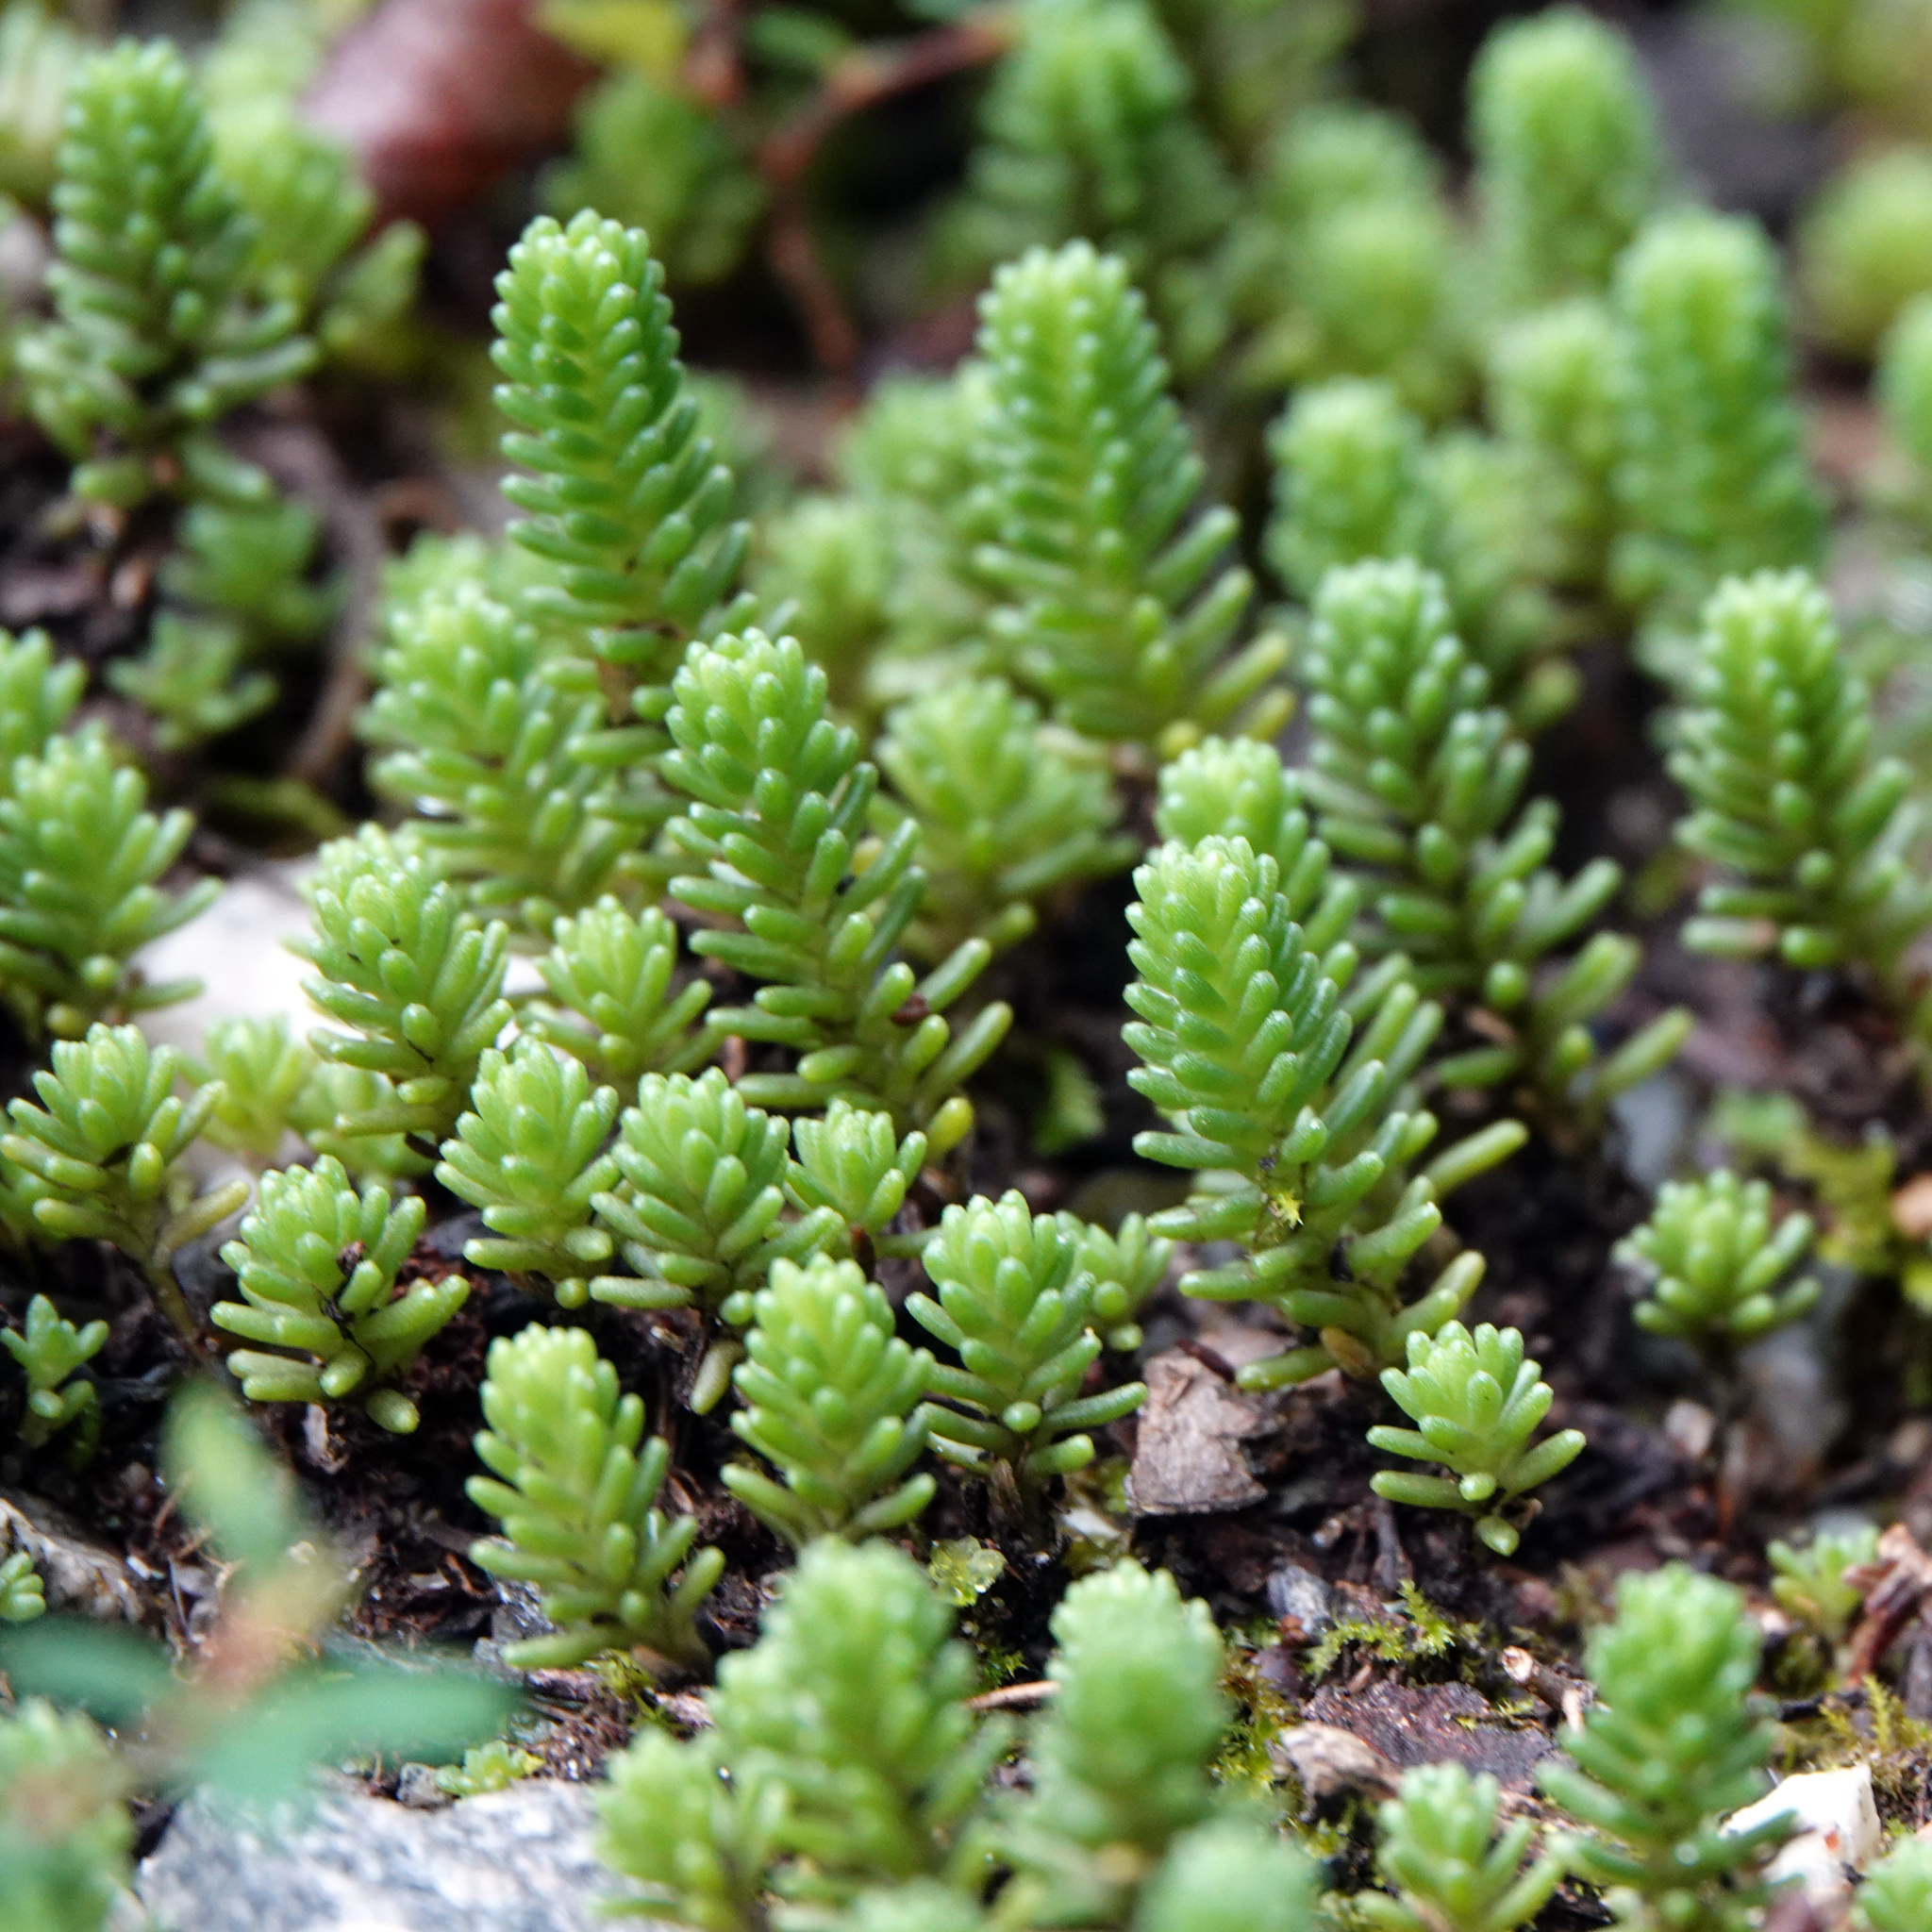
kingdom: Plantae
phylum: Tracheophyta
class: Magnoliopsida
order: Saxifragales
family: Crassulaceae
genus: Sedum
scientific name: Sedum sexangulare
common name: Tasteless stonecrop
